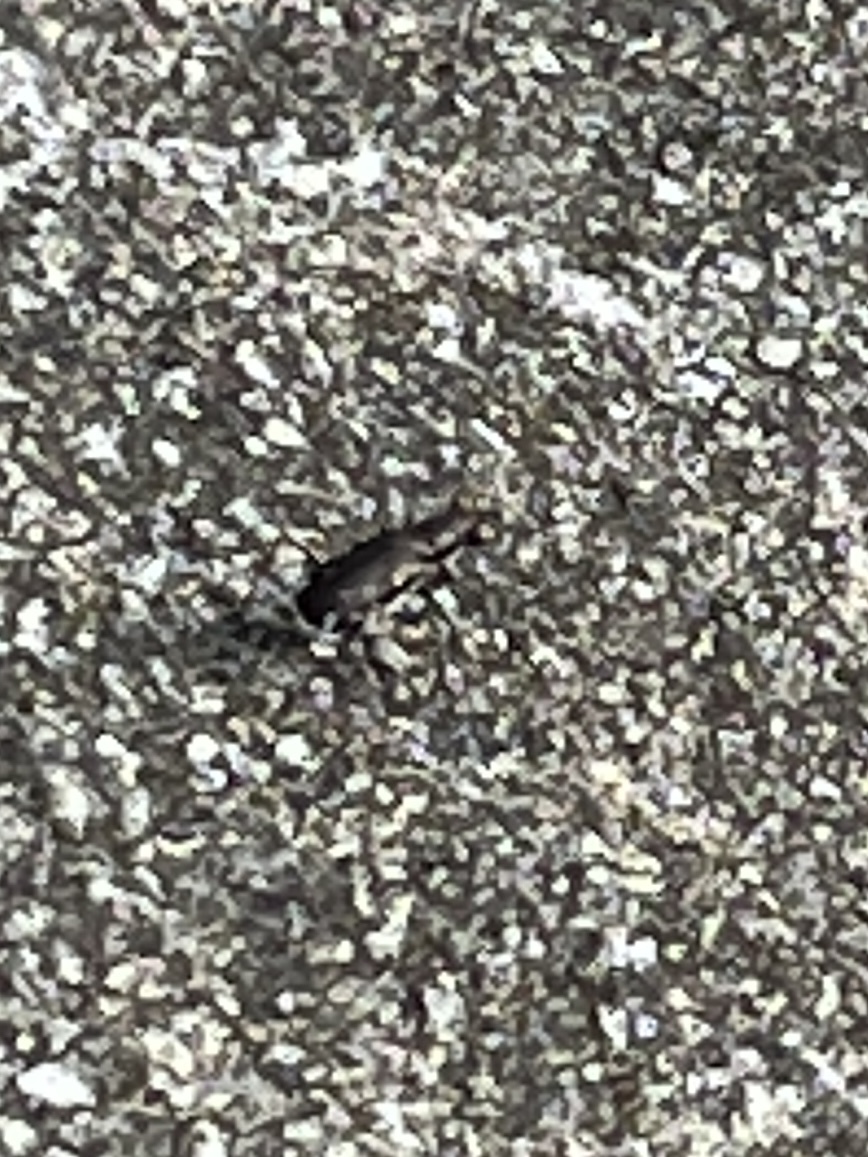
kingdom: Animalia
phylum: Arthropoda
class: Insecta
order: Coleoptera
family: Carabidae
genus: Cicindela
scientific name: Cicindela punctulata
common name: Punctured tiger beetle
